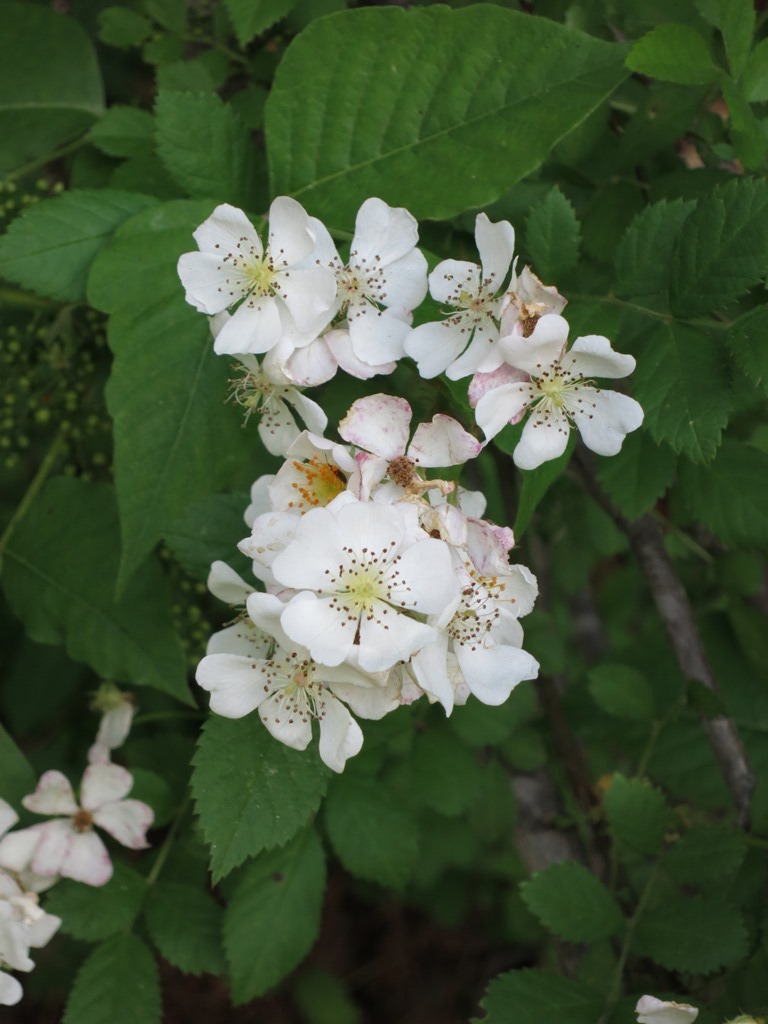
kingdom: Plantae
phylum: Tracheophyta
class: Magnoliopsida
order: Rosales
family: Rosaceae
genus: Rosa
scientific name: Rosa multiflora
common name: Multiflora rose
